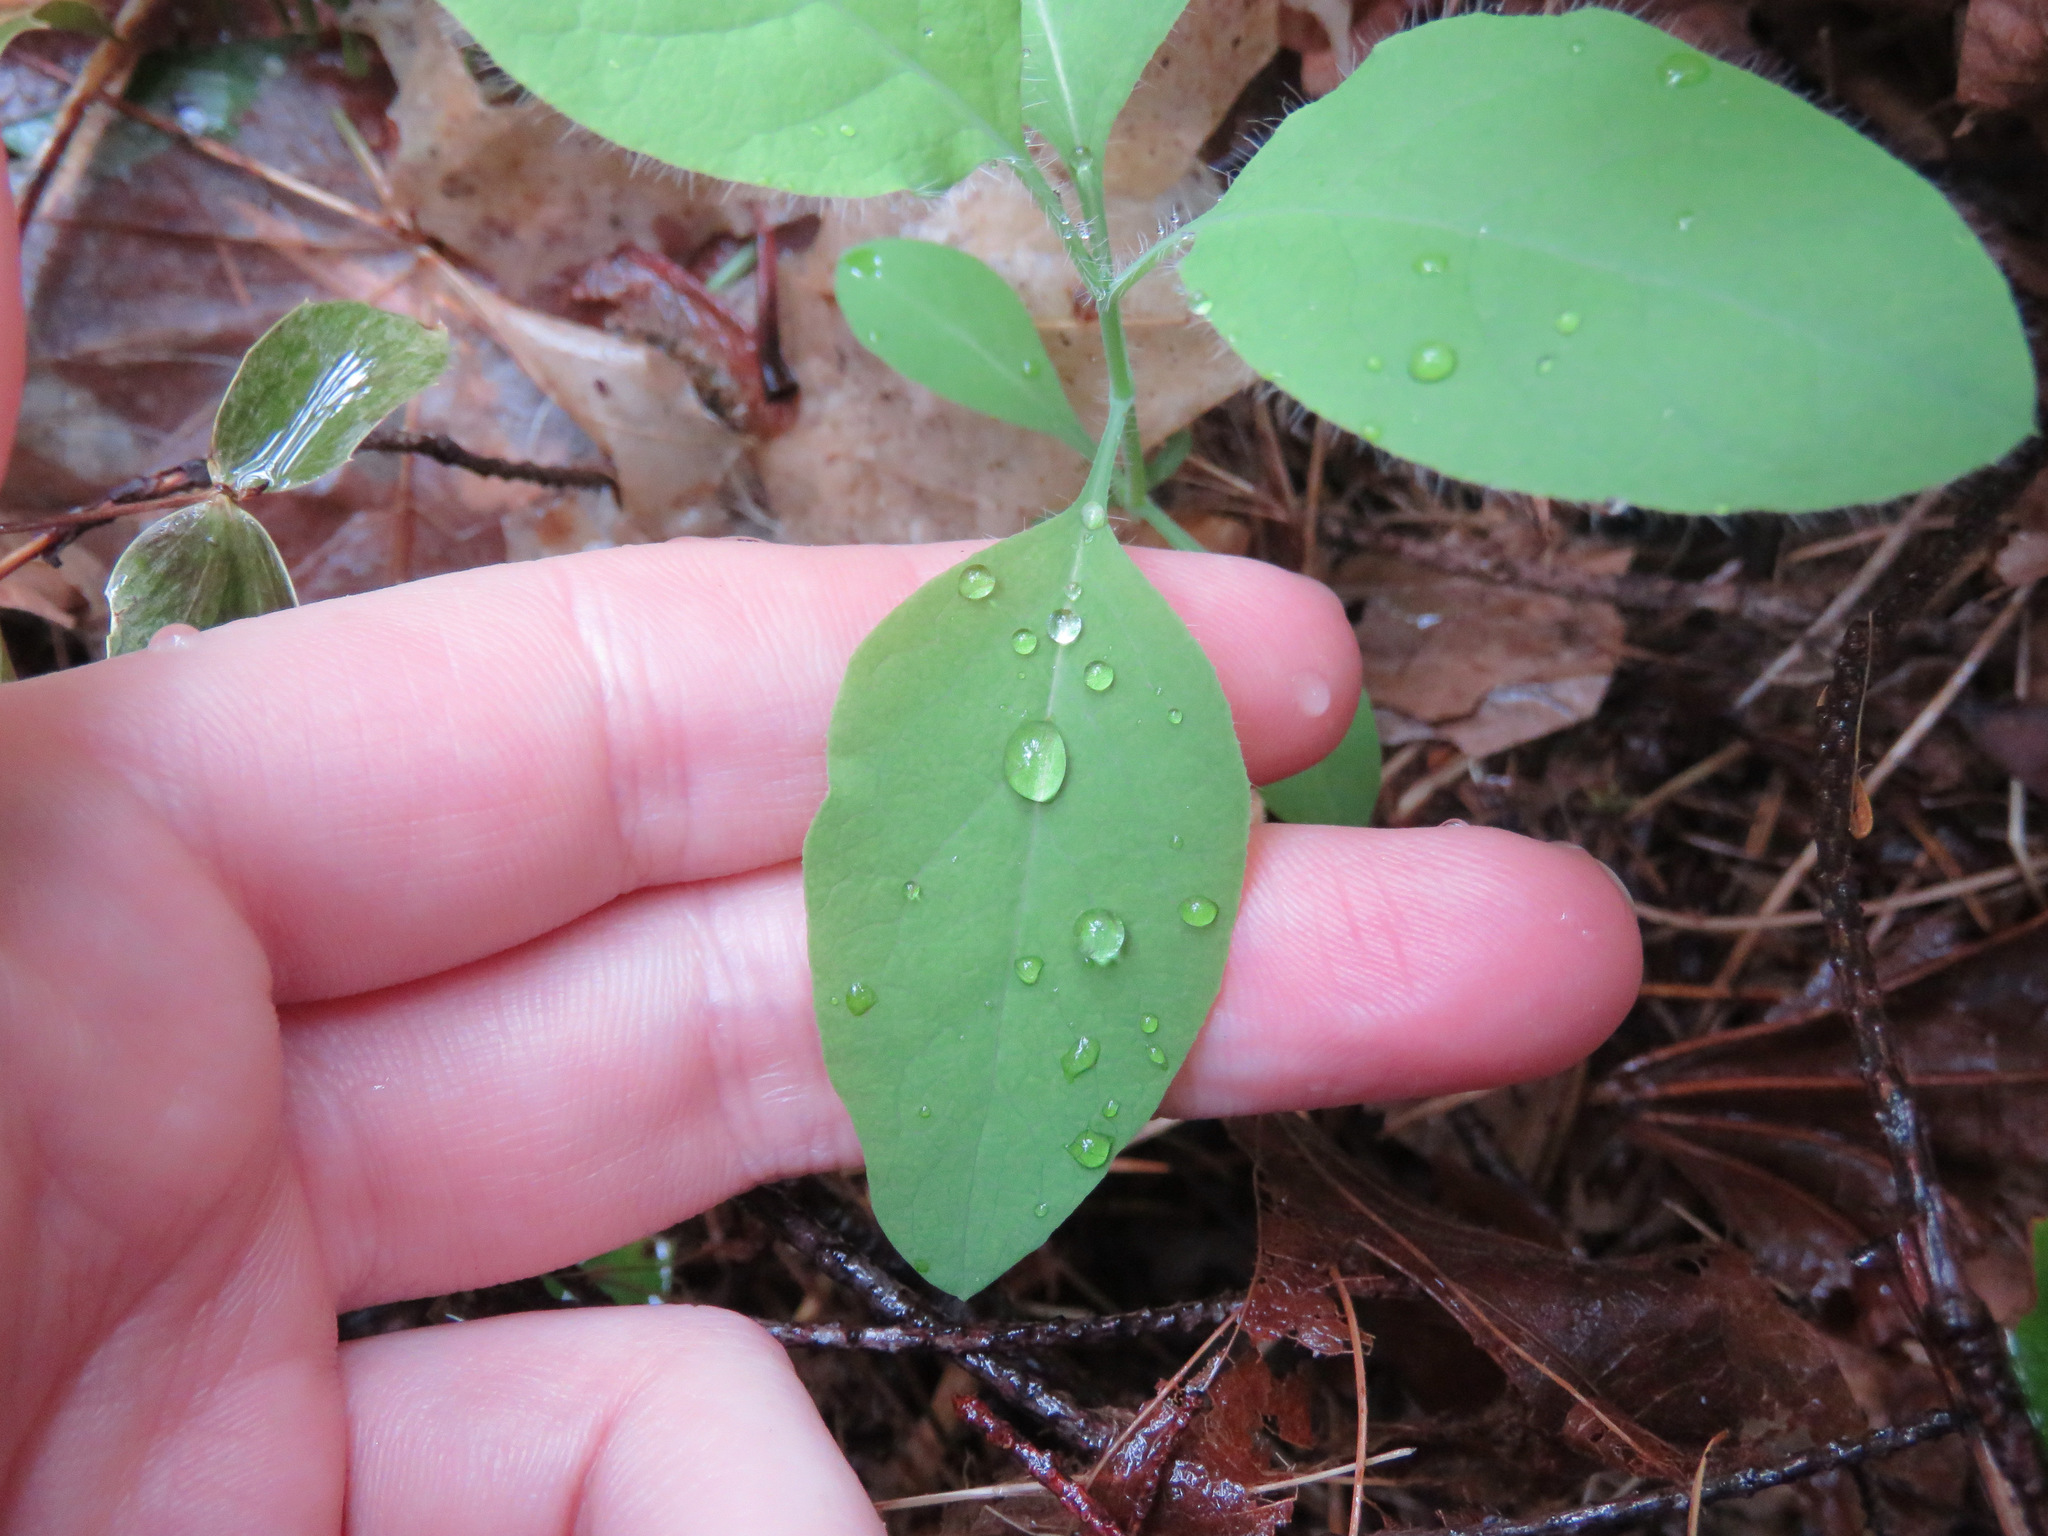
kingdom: Plantae
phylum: Tracheophyta
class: Magnoliopsida
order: Dipsacales
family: Caprifoliaceae
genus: Lonicera
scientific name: Lonicera ciliosa
